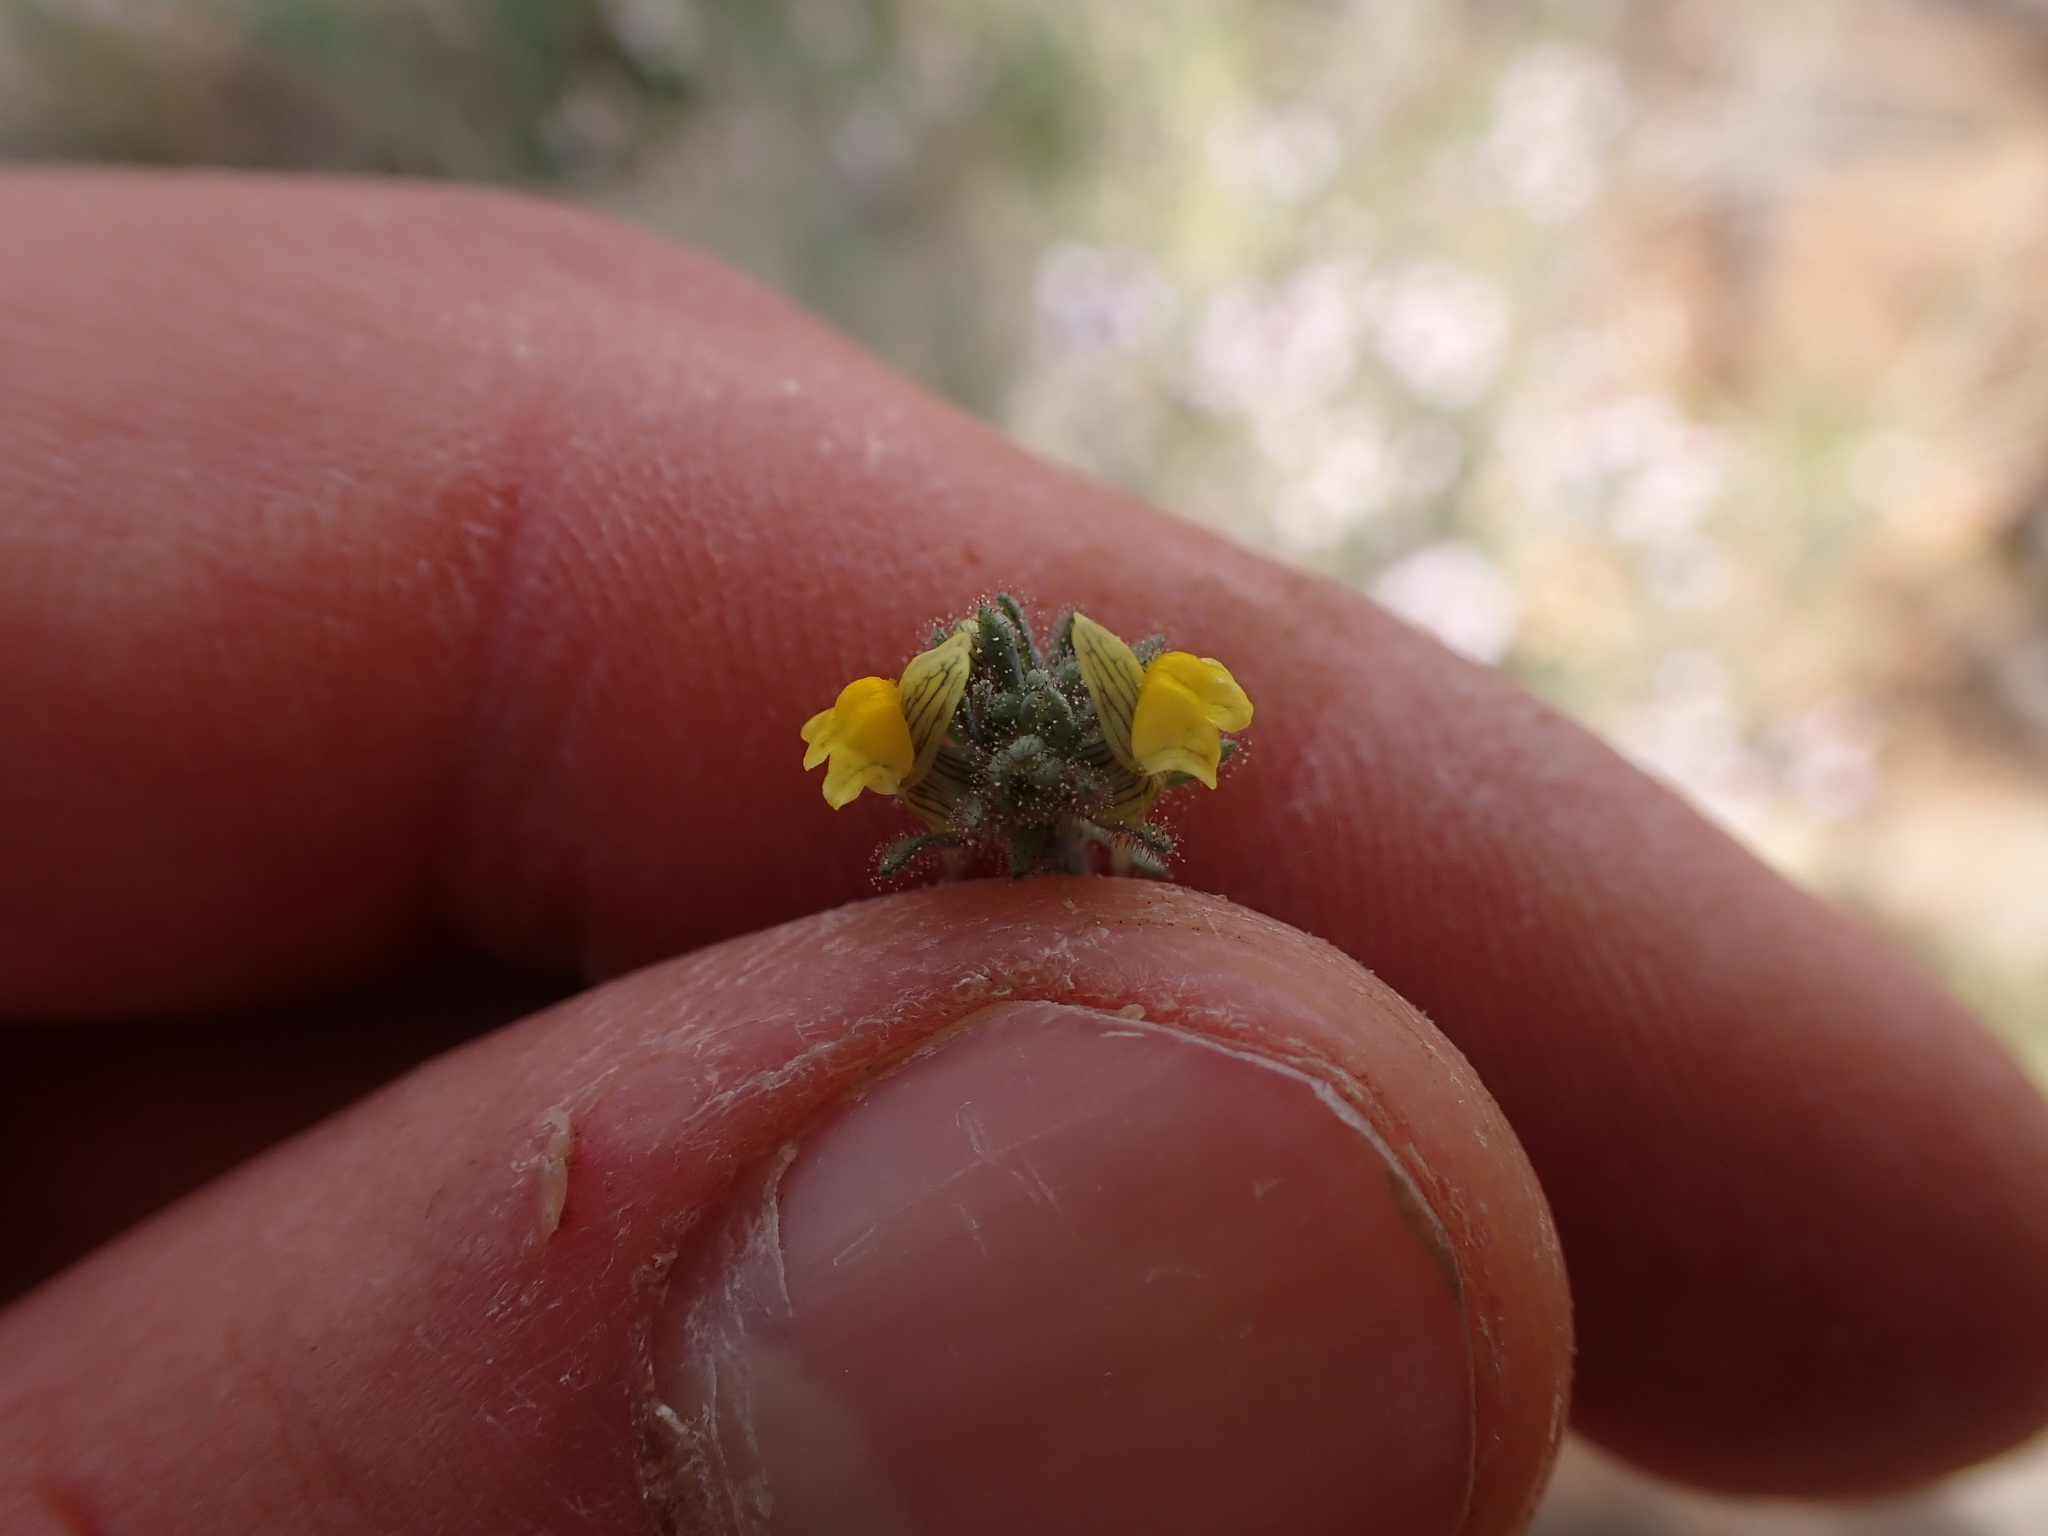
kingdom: Plantae
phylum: Tracheophyta
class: Magnoliopsida
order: Lamiales
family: Plantaginaceae
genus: Linaria
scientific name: Linaria simplex
